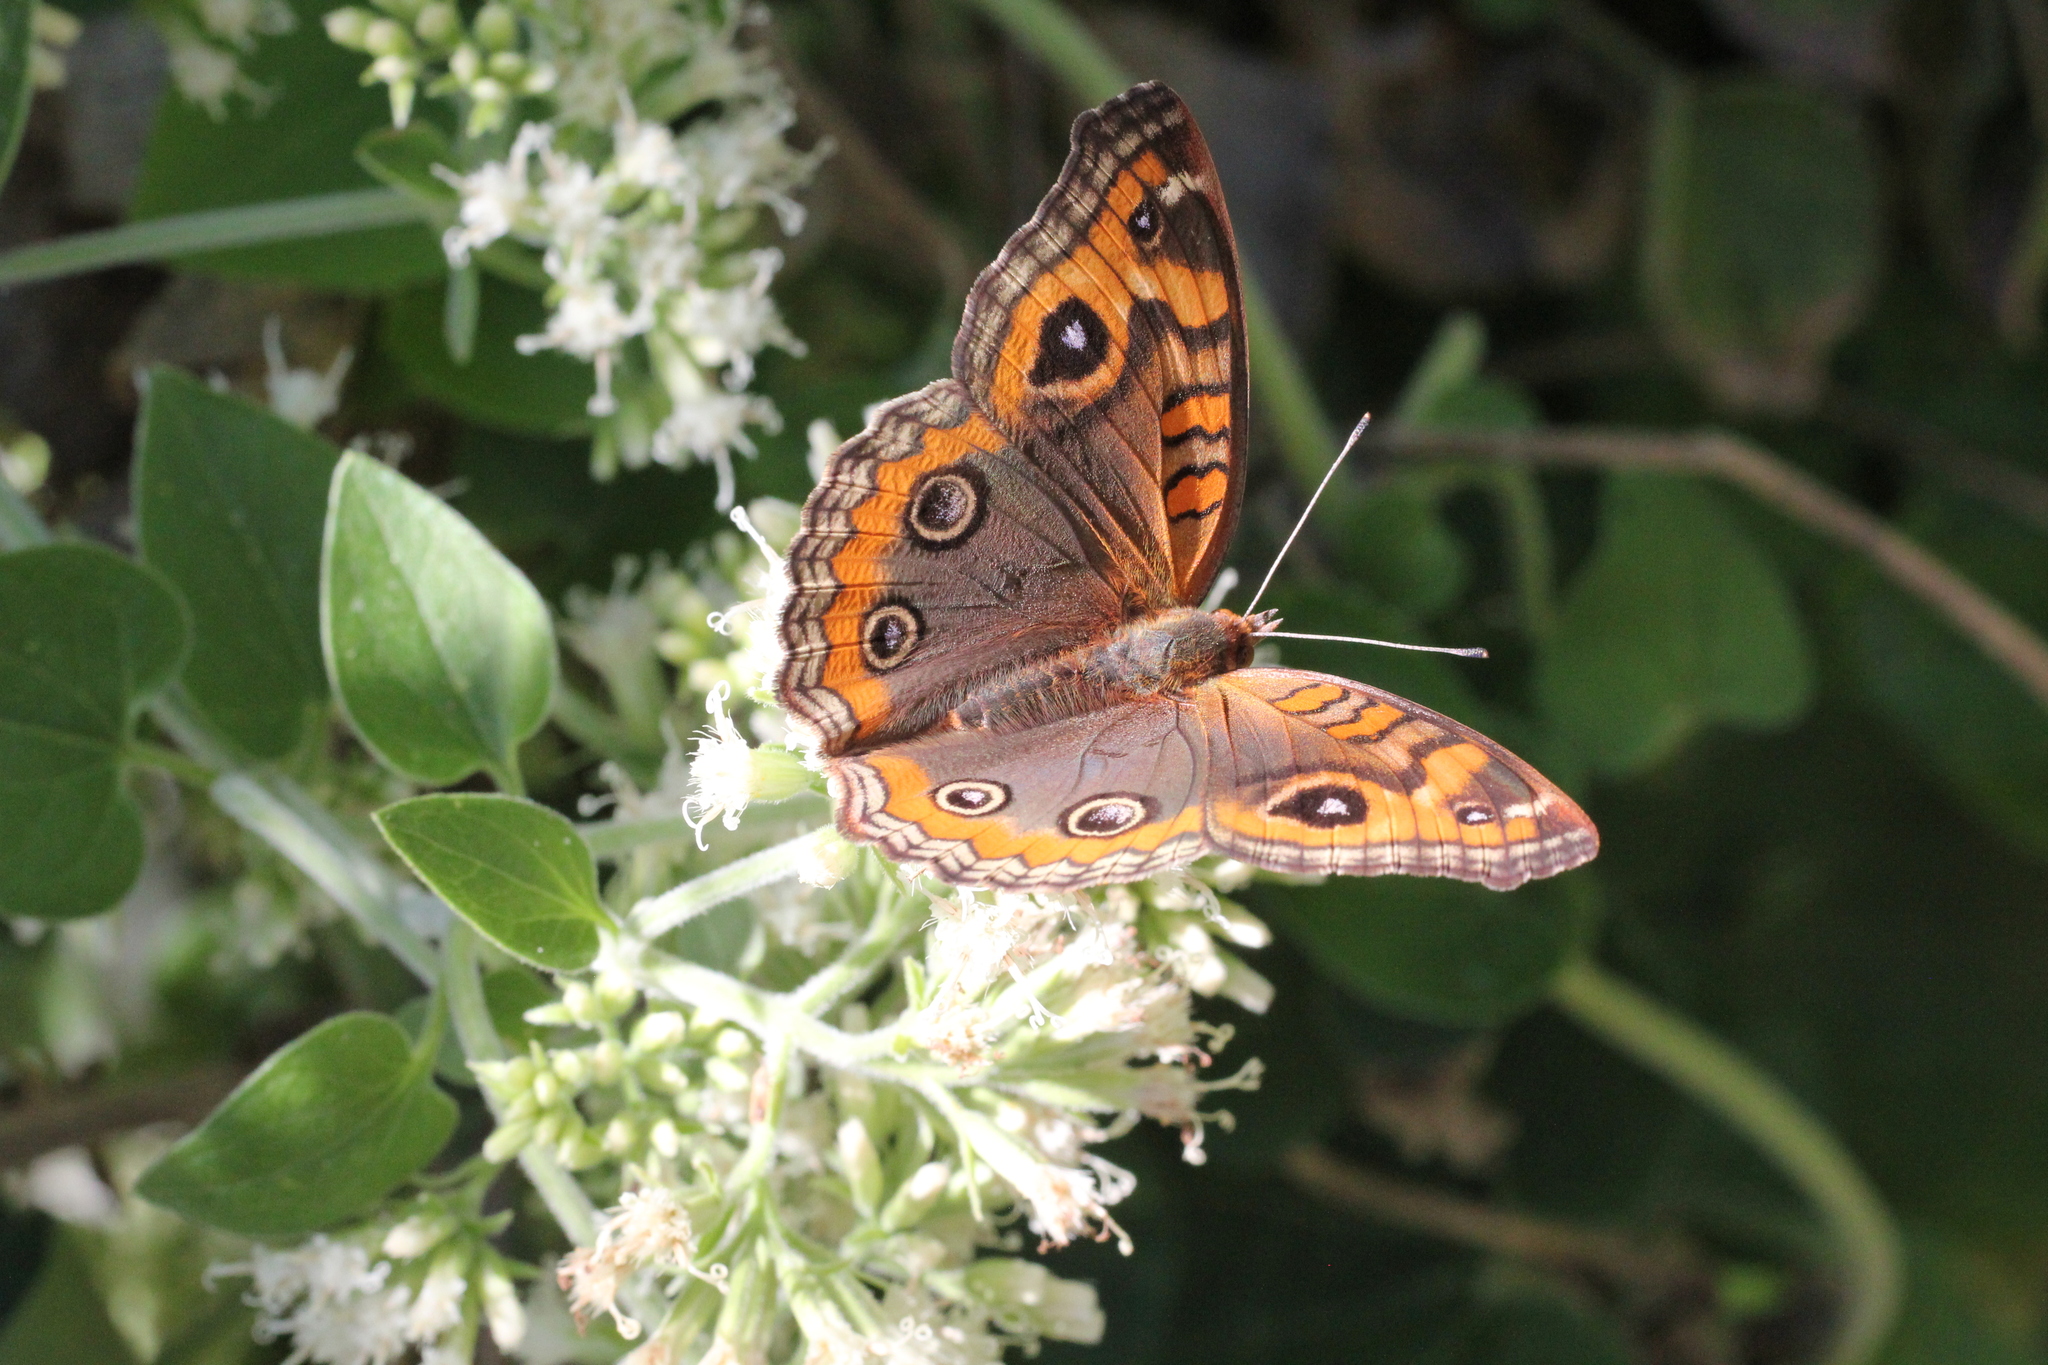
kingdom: Animalia
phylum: Arthropoda
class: Insecta
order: Lepidoptera
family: Nymphalidae
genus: Junonia
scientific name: Junonia lavinia
